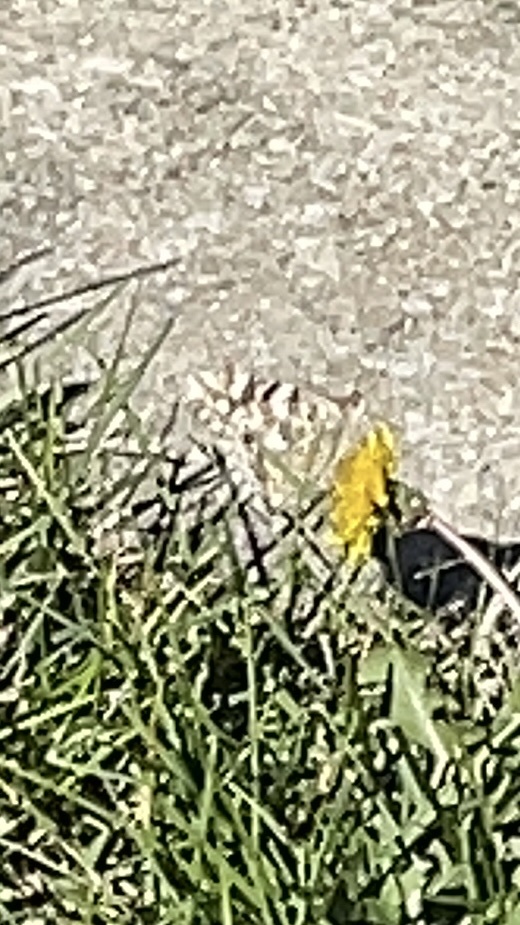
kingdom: Animalia
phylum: Arthropoda
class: Insecta
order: Lepidoptera
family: Nymphalidae
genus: Vanessa
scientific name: Vanessa cardui
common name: Painted lady
